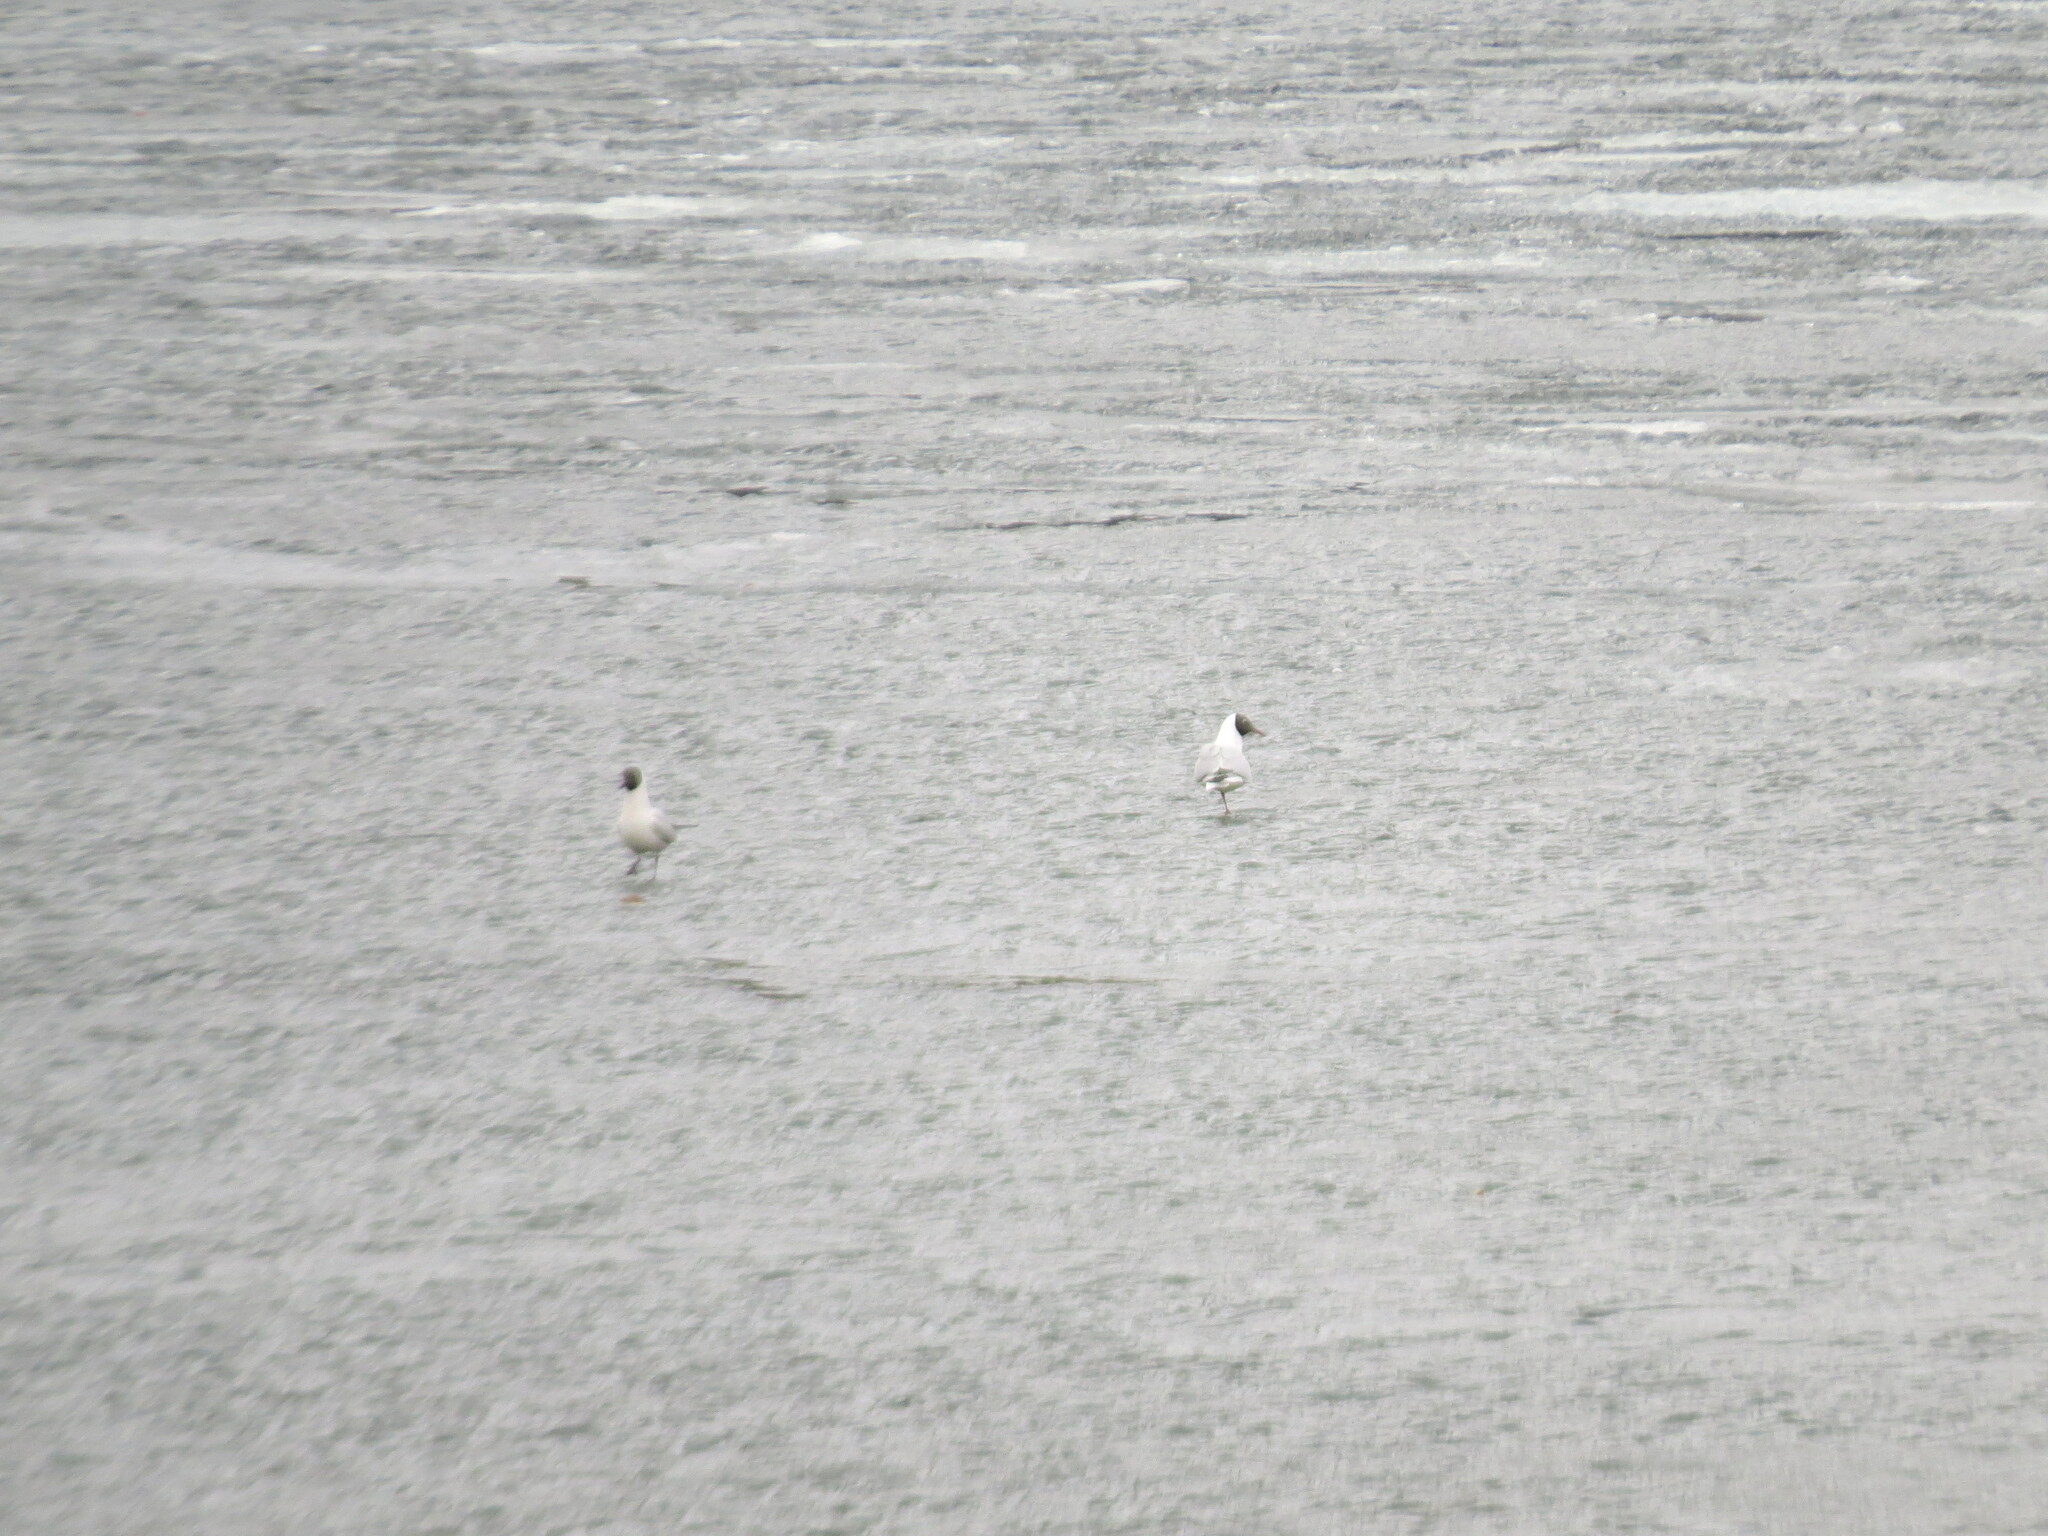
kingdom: Animalia
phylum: Chordata
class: Aves
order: Charadriiformes
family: Laridae
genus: Chroicocephalus
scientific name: Chroicocephalus ridibundus
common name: Black-headed gull
